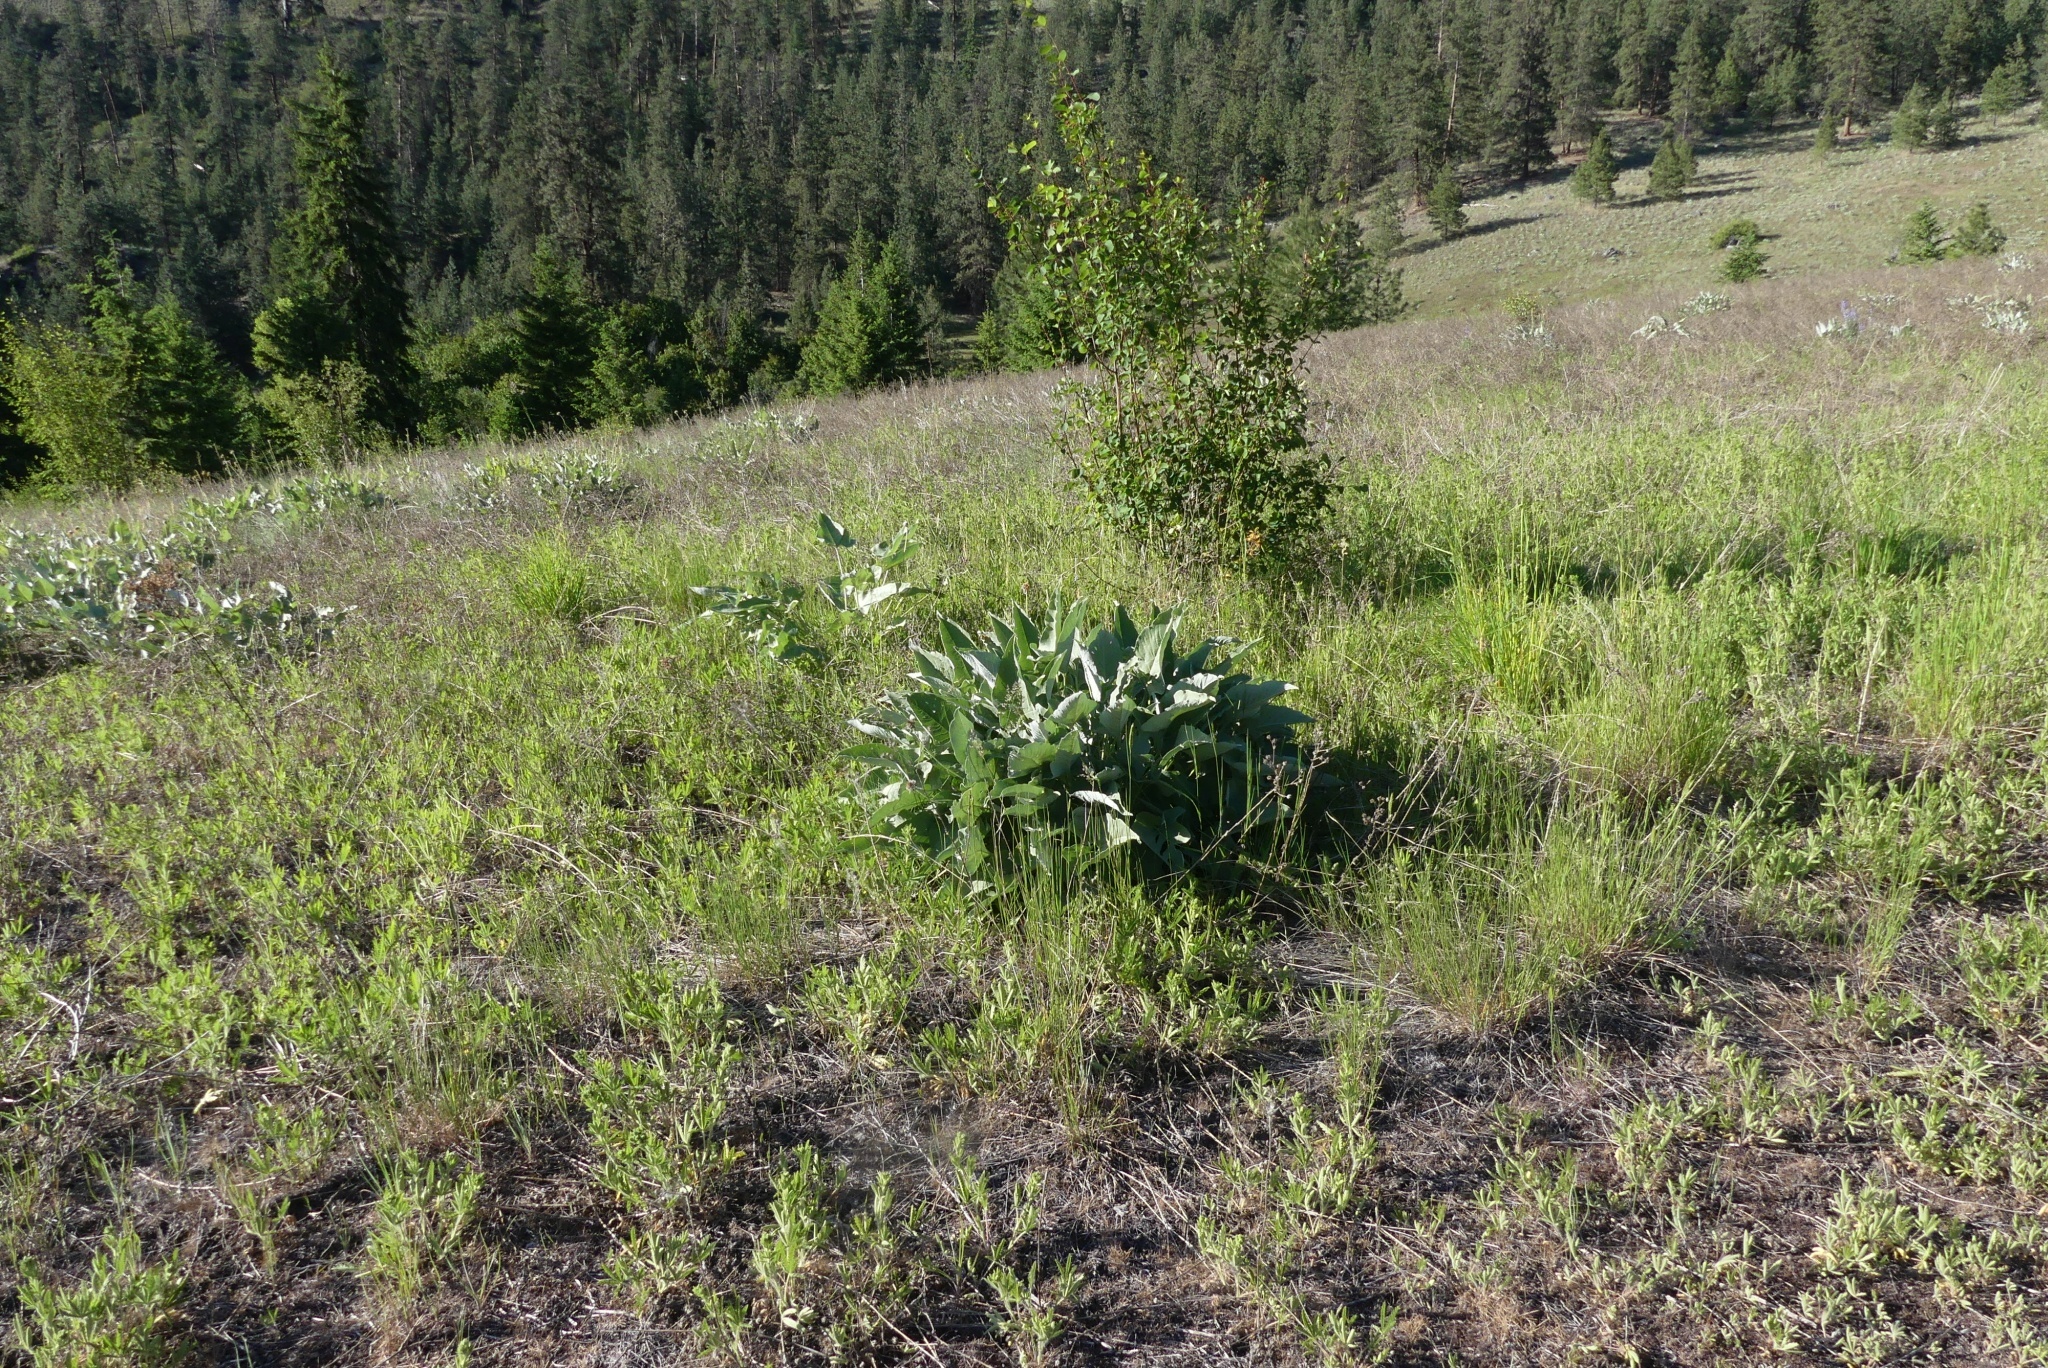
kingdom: Plantae
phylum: Tracheophyta
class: Magnoliopsida
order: Asterales
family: Asteraceae
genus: Wyethia
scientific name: Wyethia sagittata
